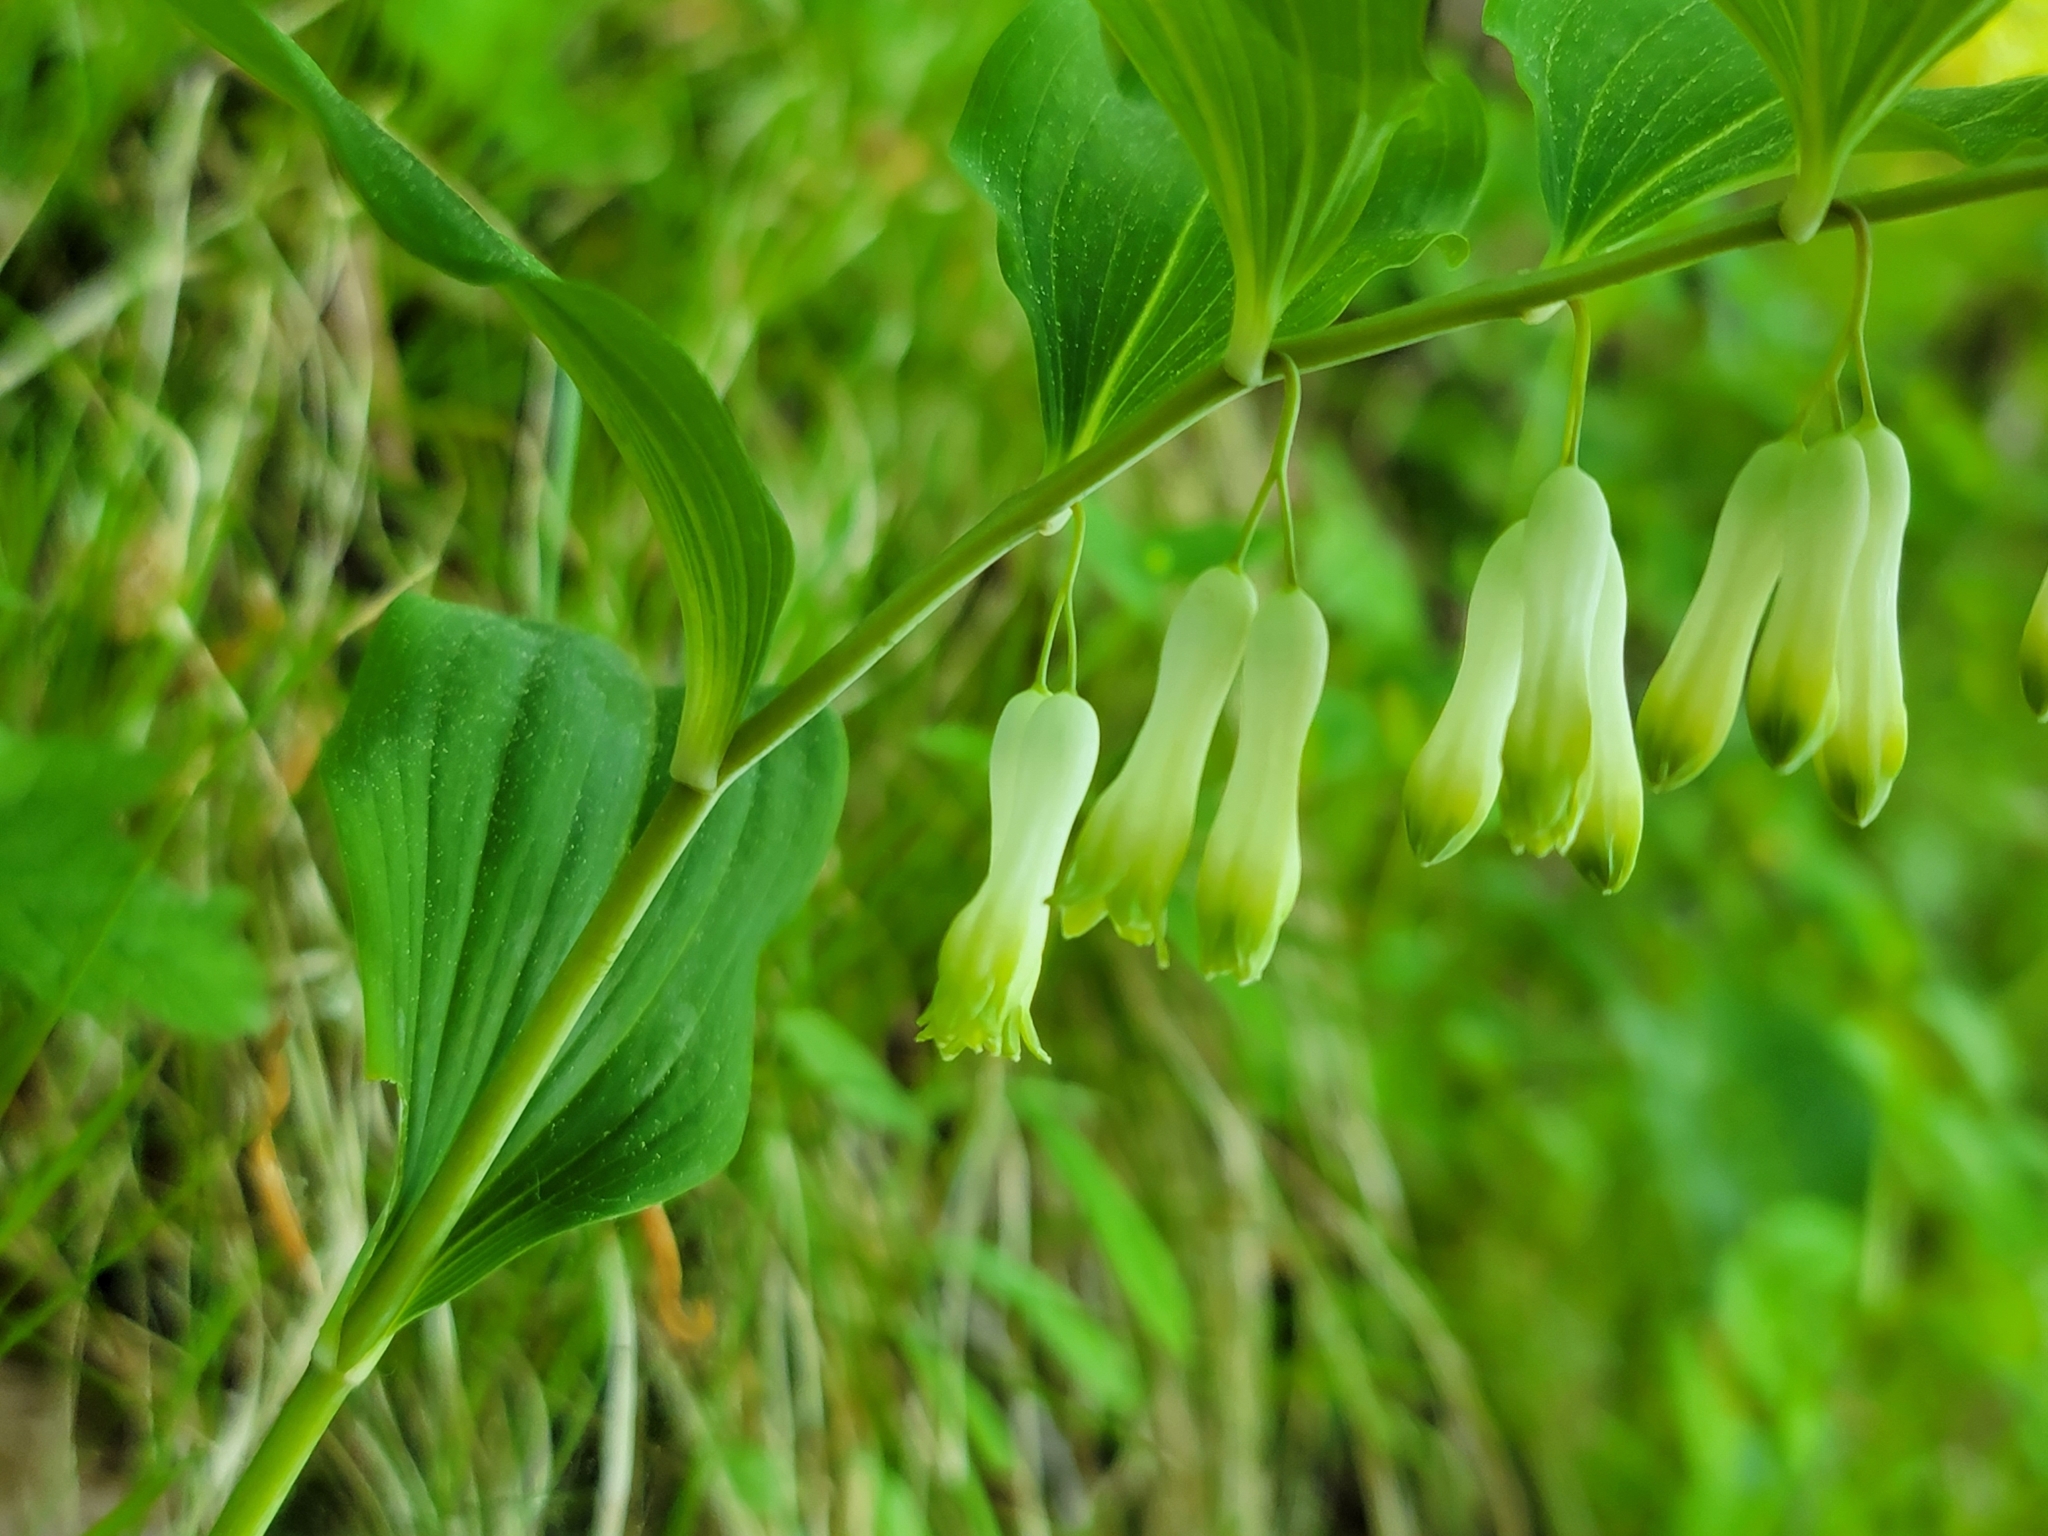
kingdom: Plantae
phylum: Tracheophyta
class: Liliopsida
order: Asparagales
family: Asparagaceae
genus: Polygonatum
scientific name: Polygonatum multiflorum
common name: Solomon's-seal
